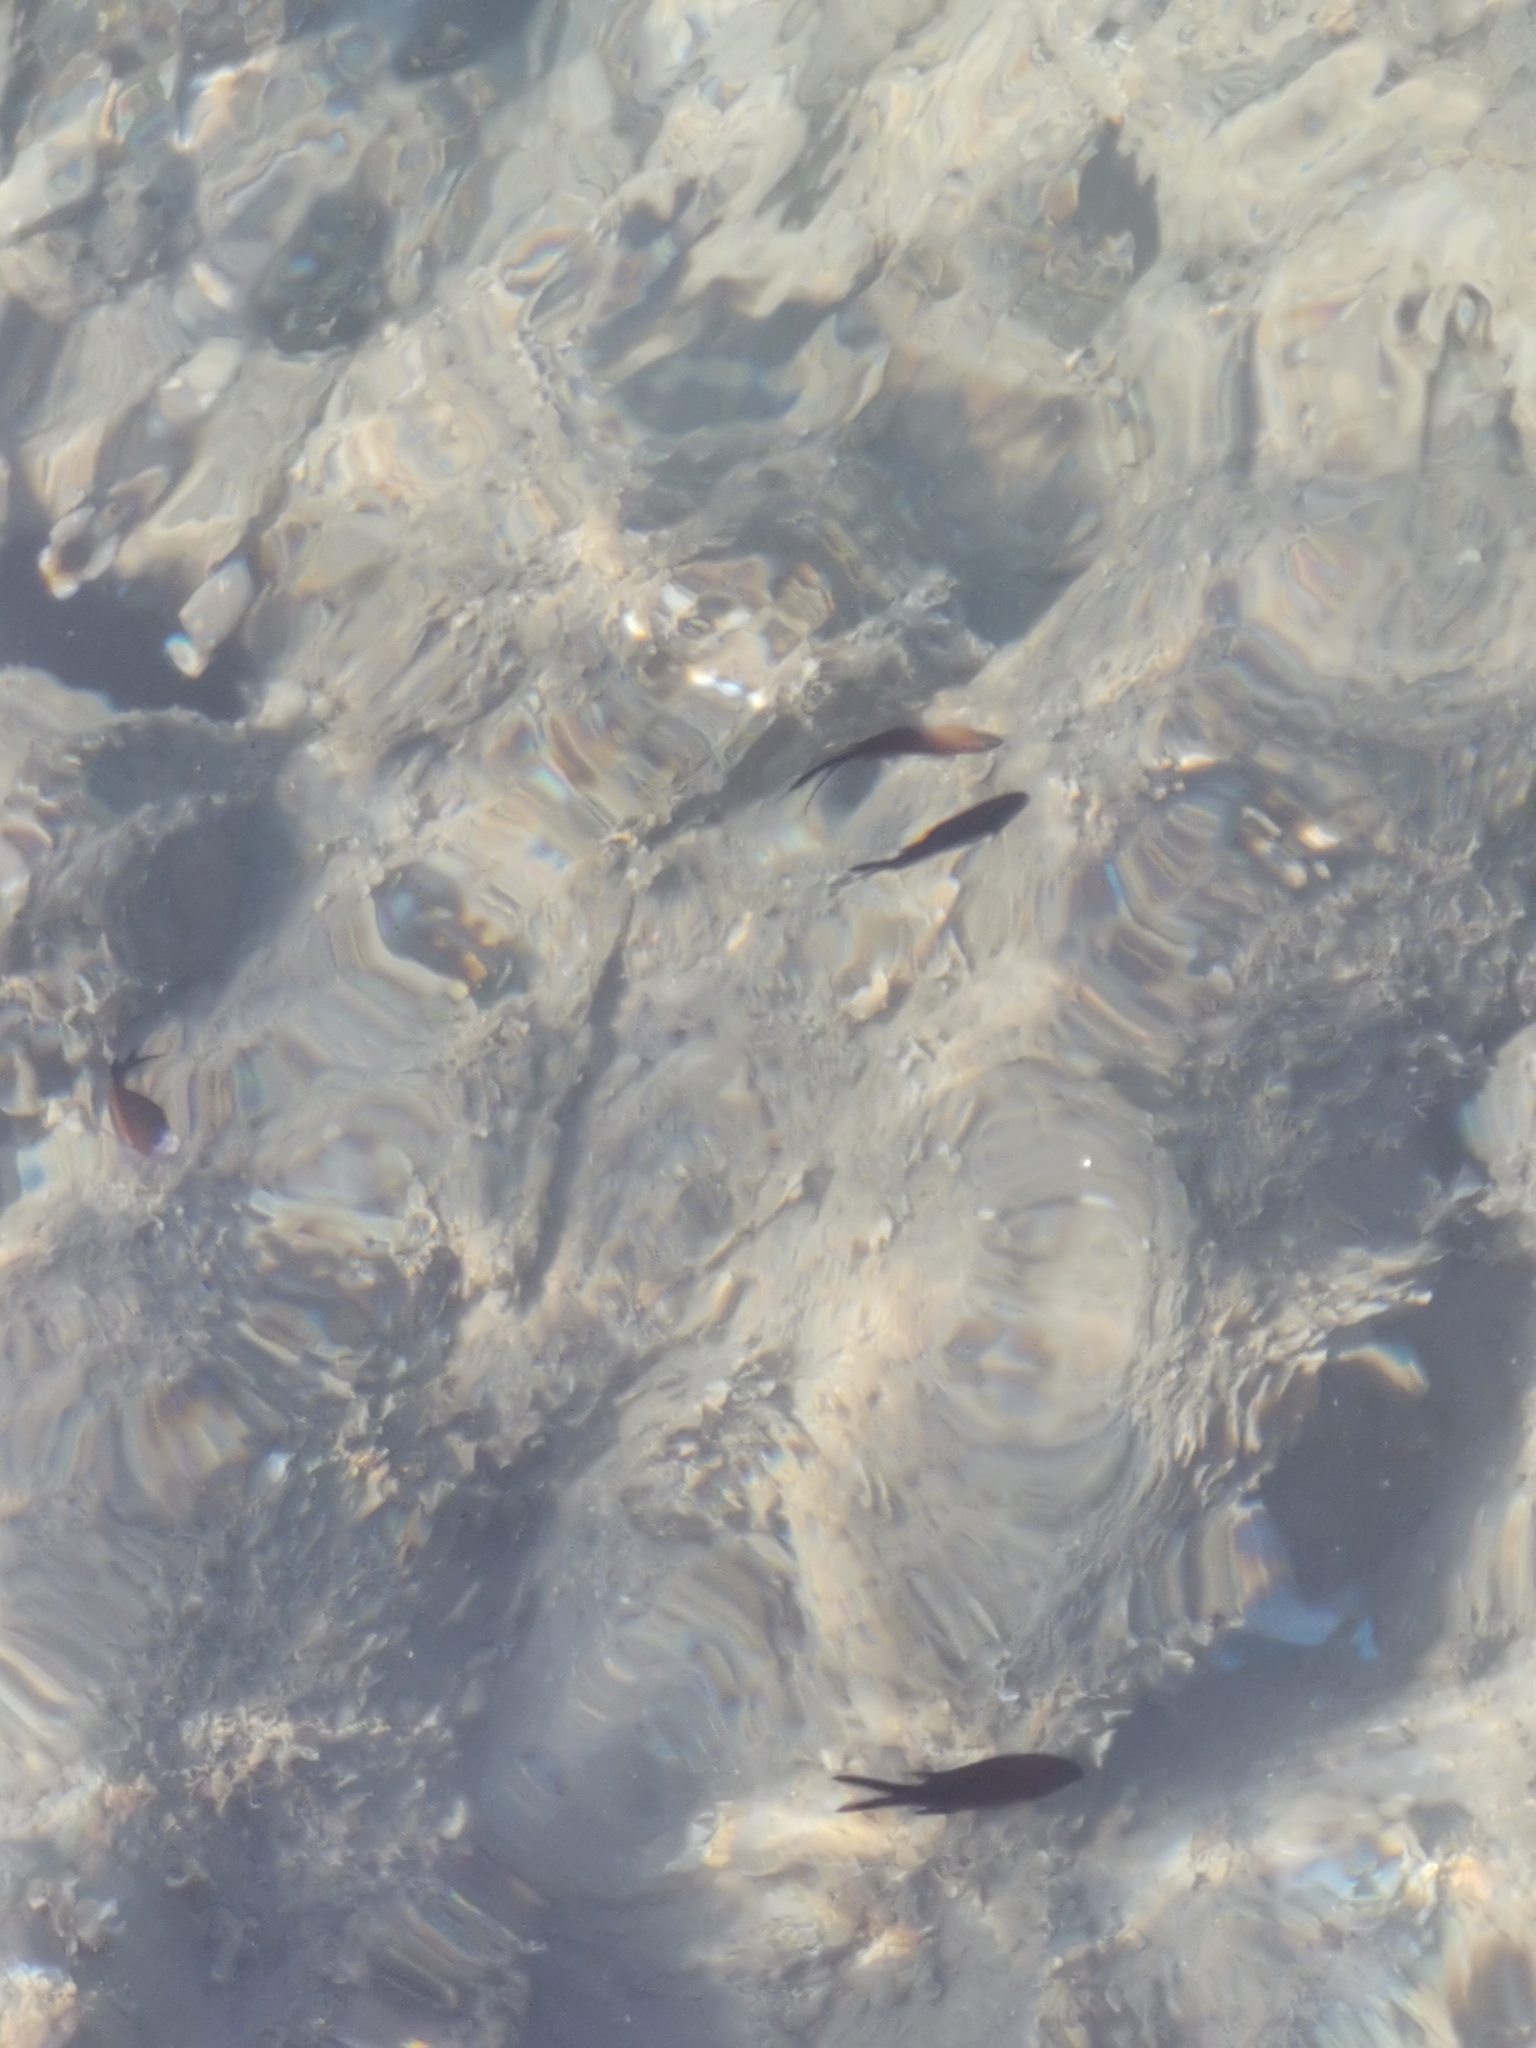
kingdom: Animalia
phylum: Chordata
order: Perciformes
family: Pomacentridae
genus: Chromis
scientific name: Chromis chromis
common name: Damselfish
